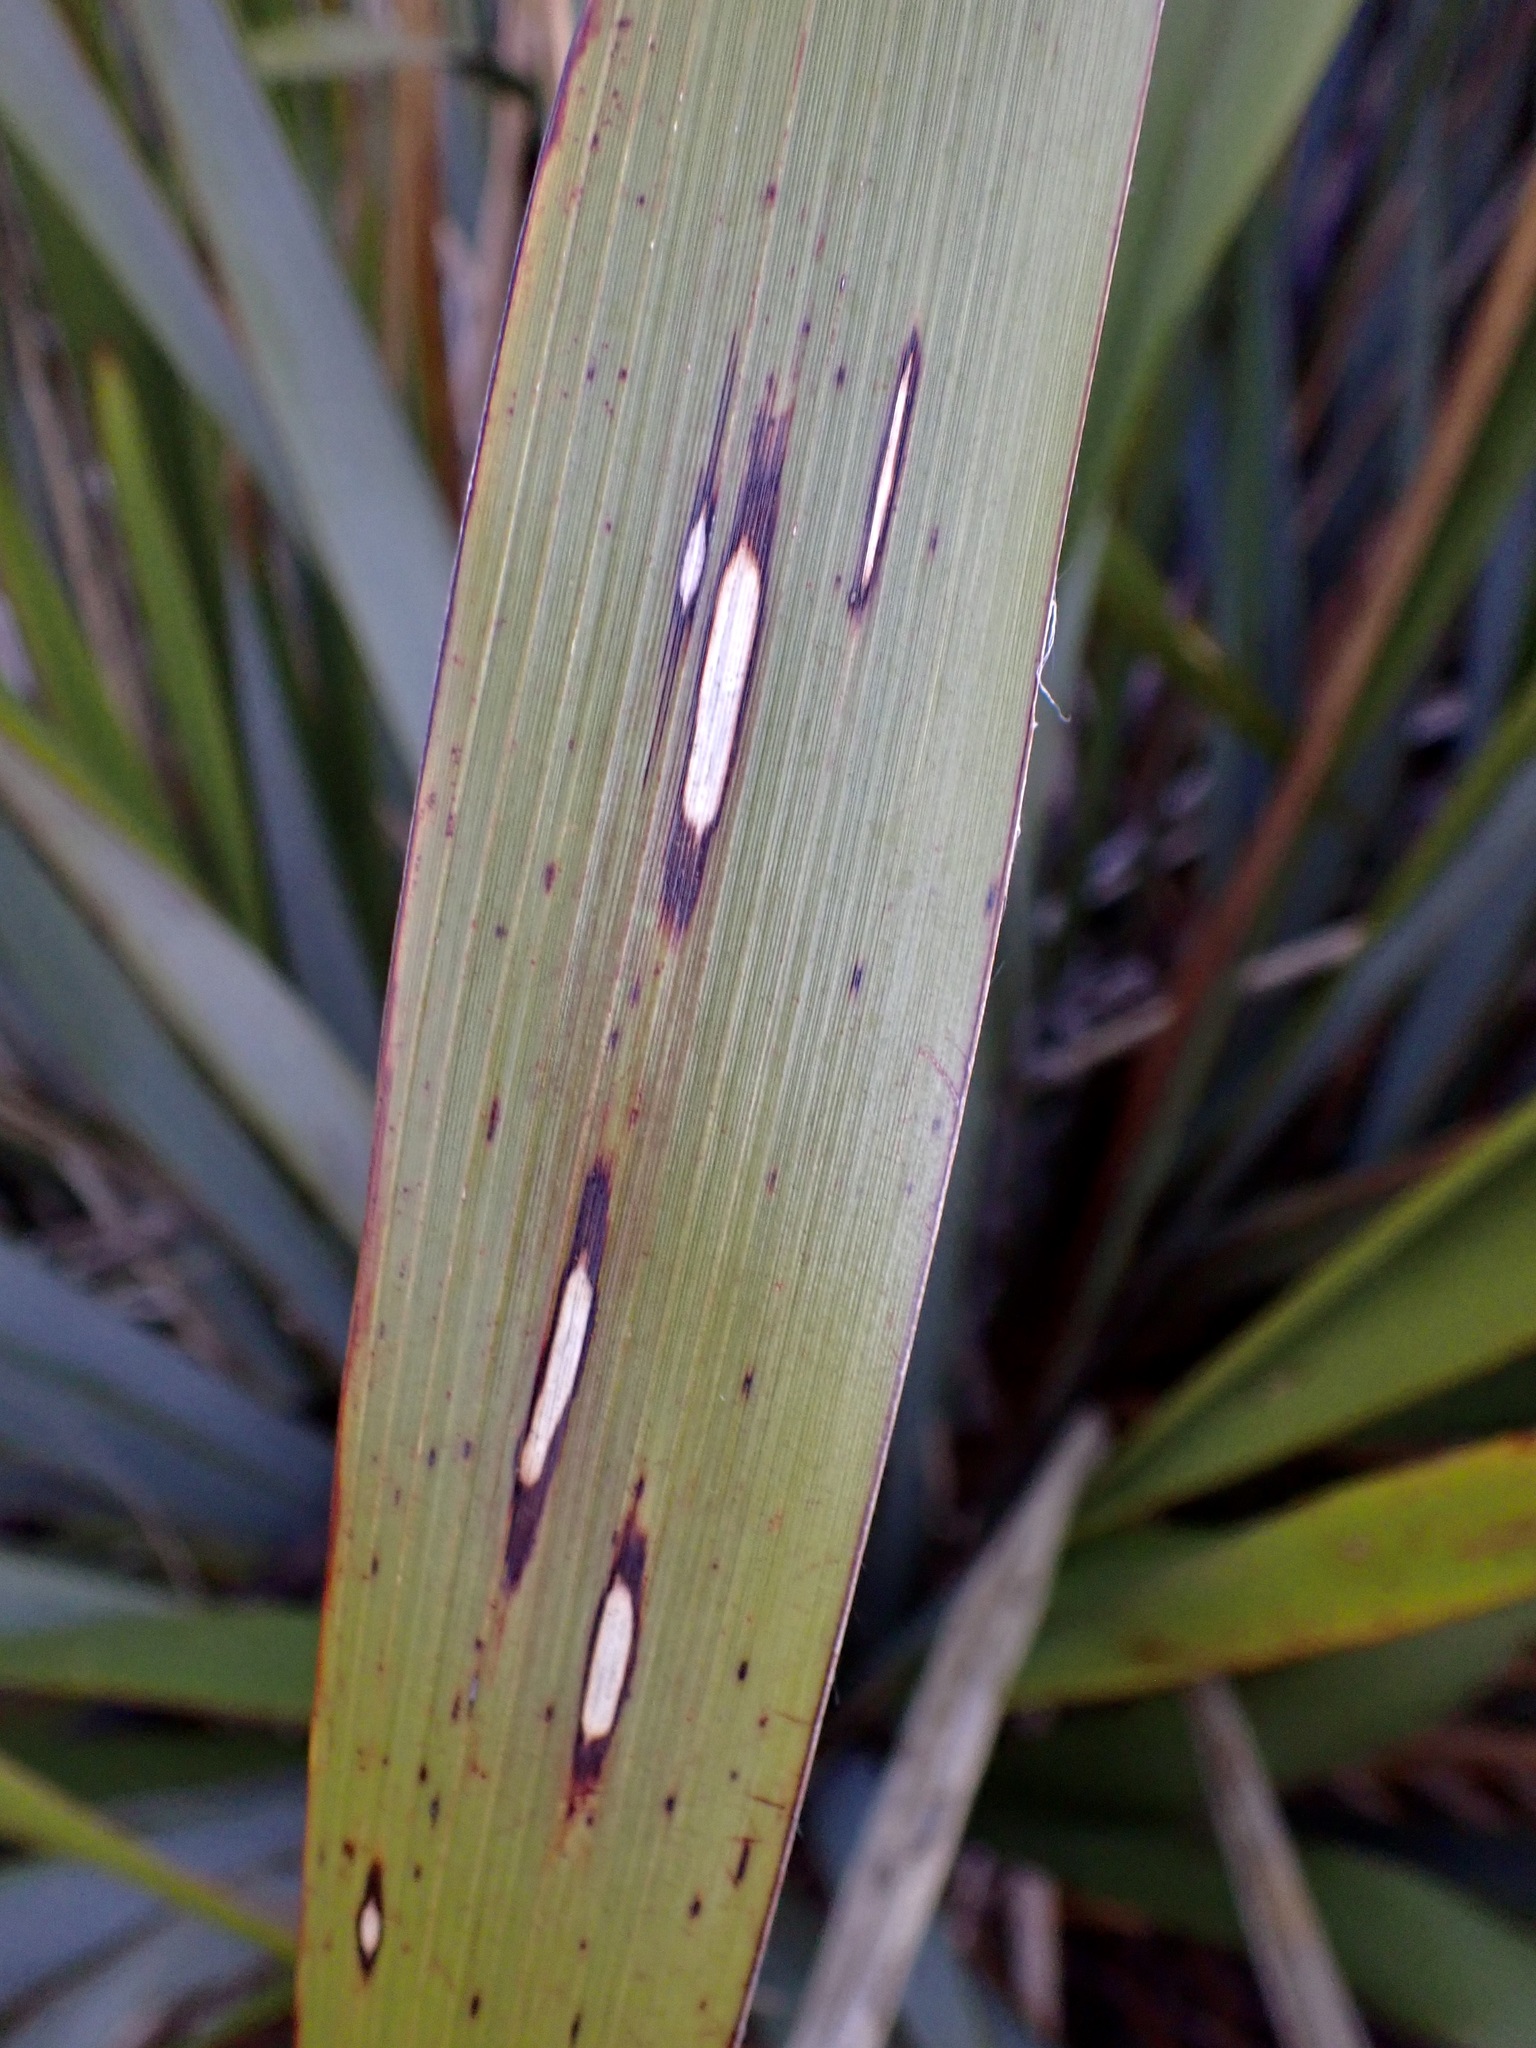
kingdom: Animalia
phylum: Arthropoda
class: Insecta
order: Lepidoptera
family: Geometridae
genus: Orthoclydon
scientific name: Orthoclydon praefectata
